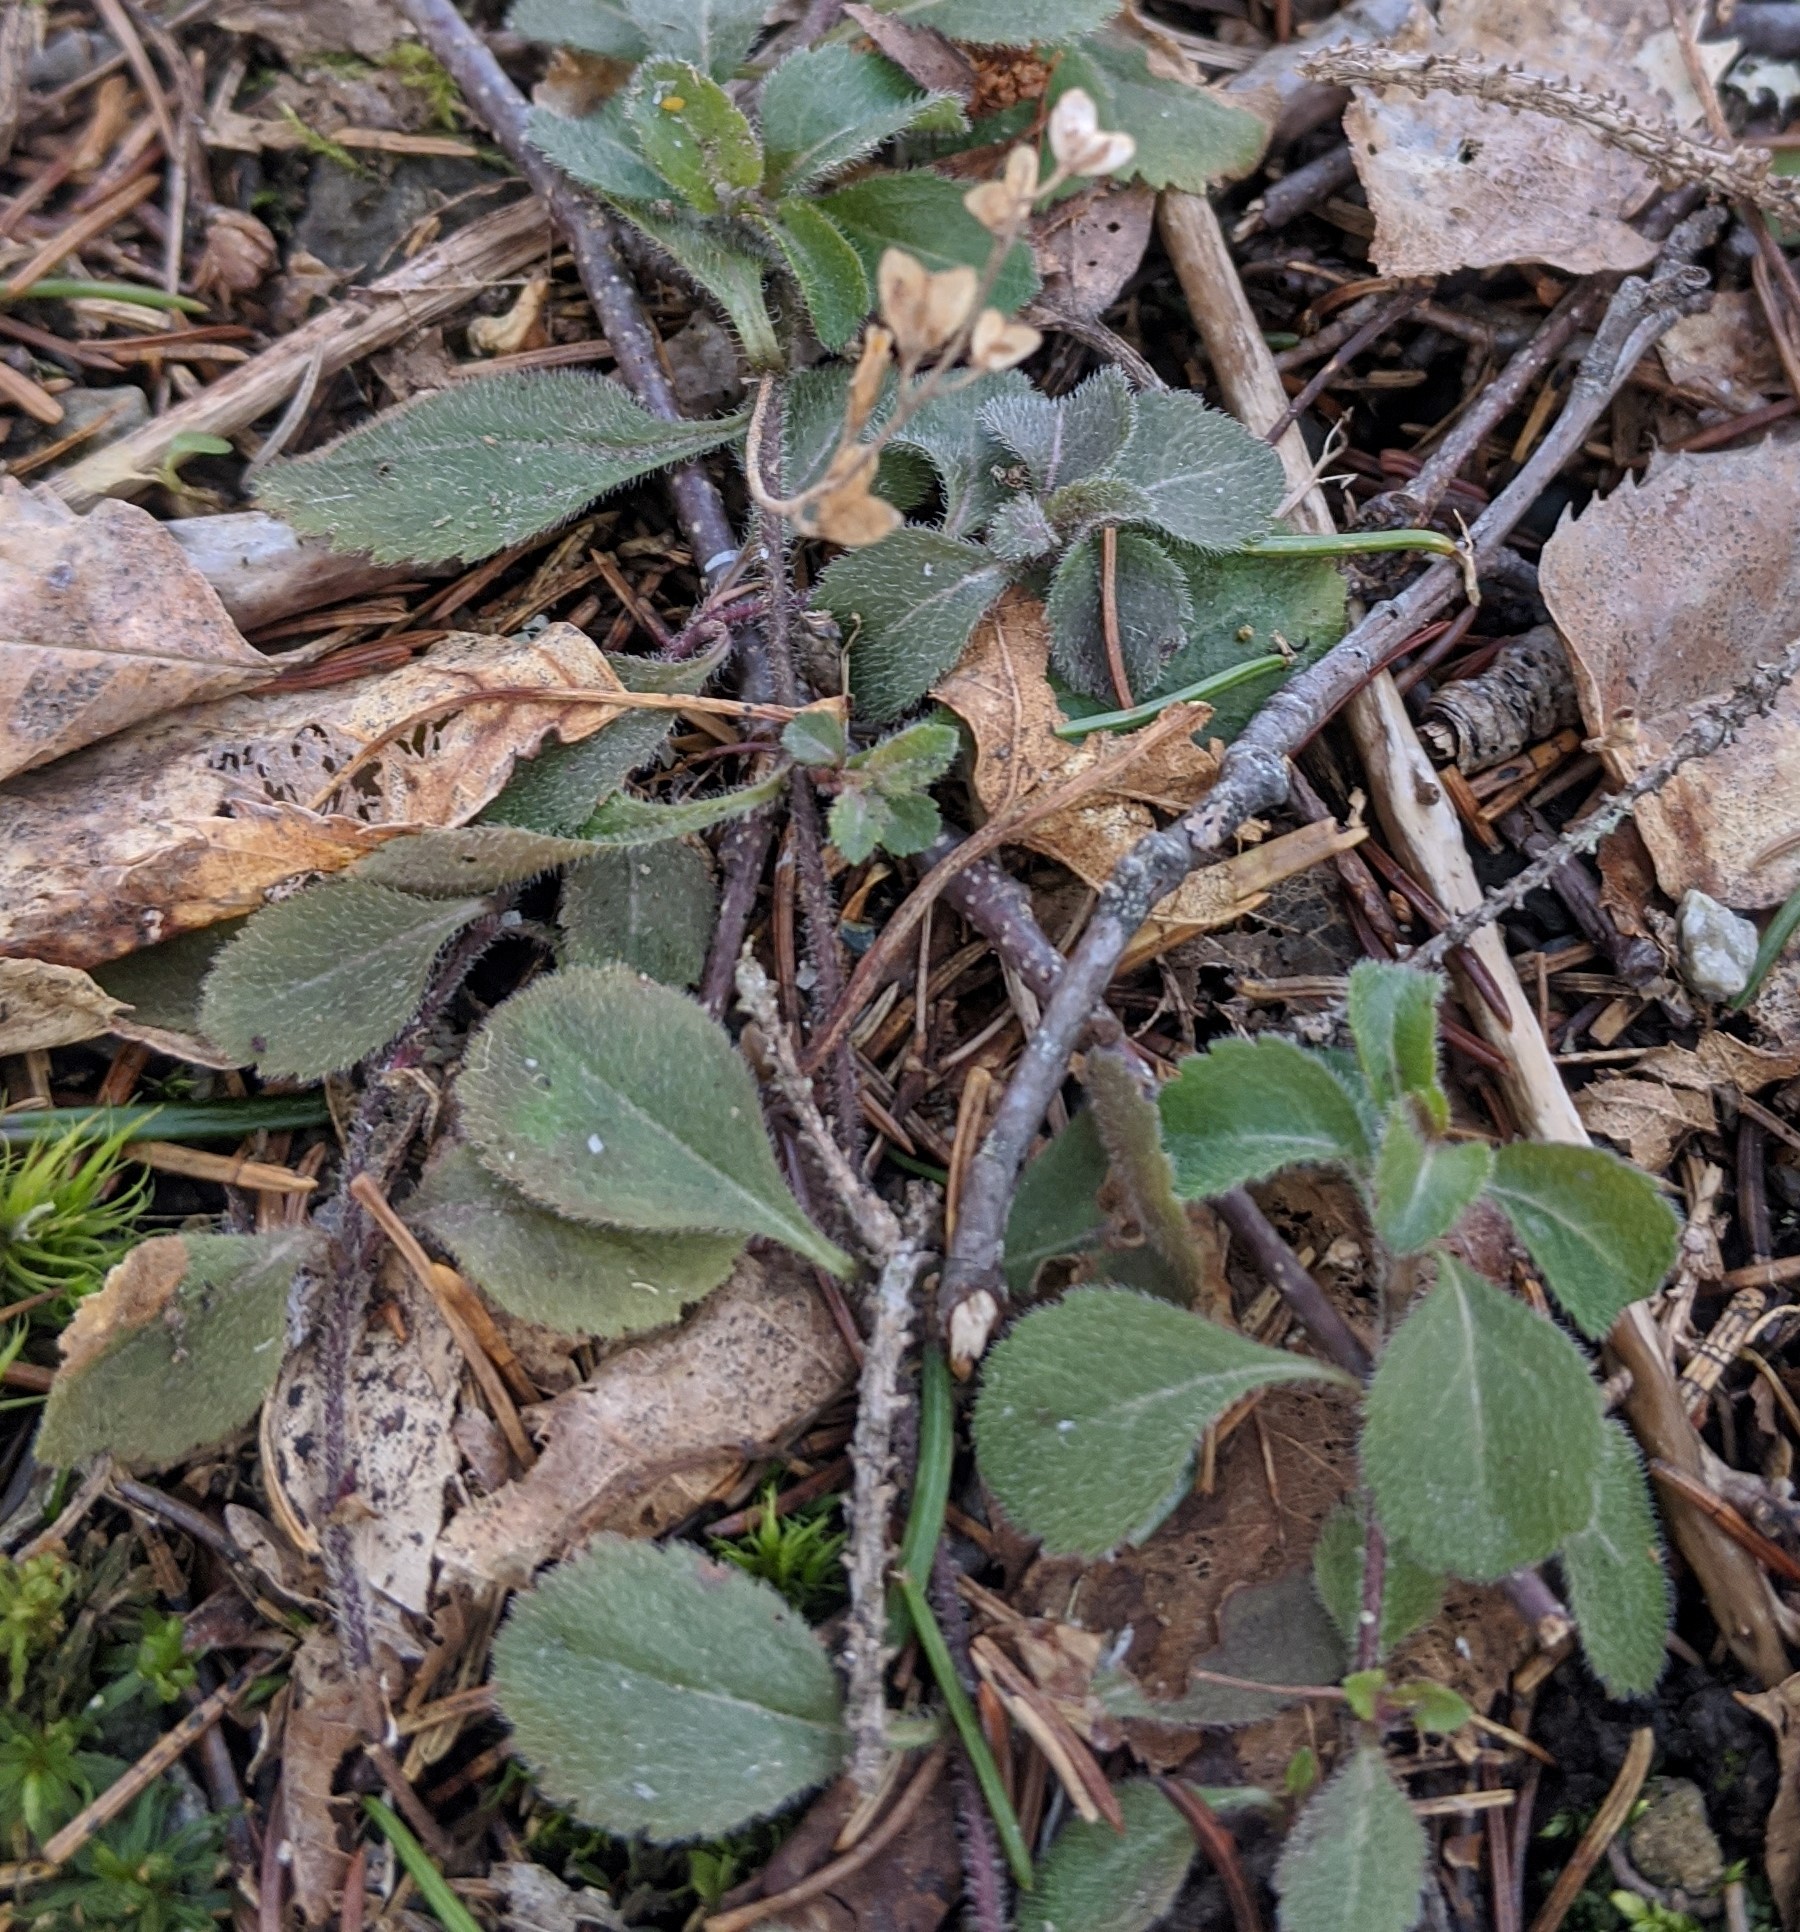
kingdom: Plantae
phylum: Tracheophyta
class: Magnoliopsida
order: Lamiales
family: Plantaginaceae
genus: Veronica
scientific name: Veronica officinalis
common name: Common speedwell
